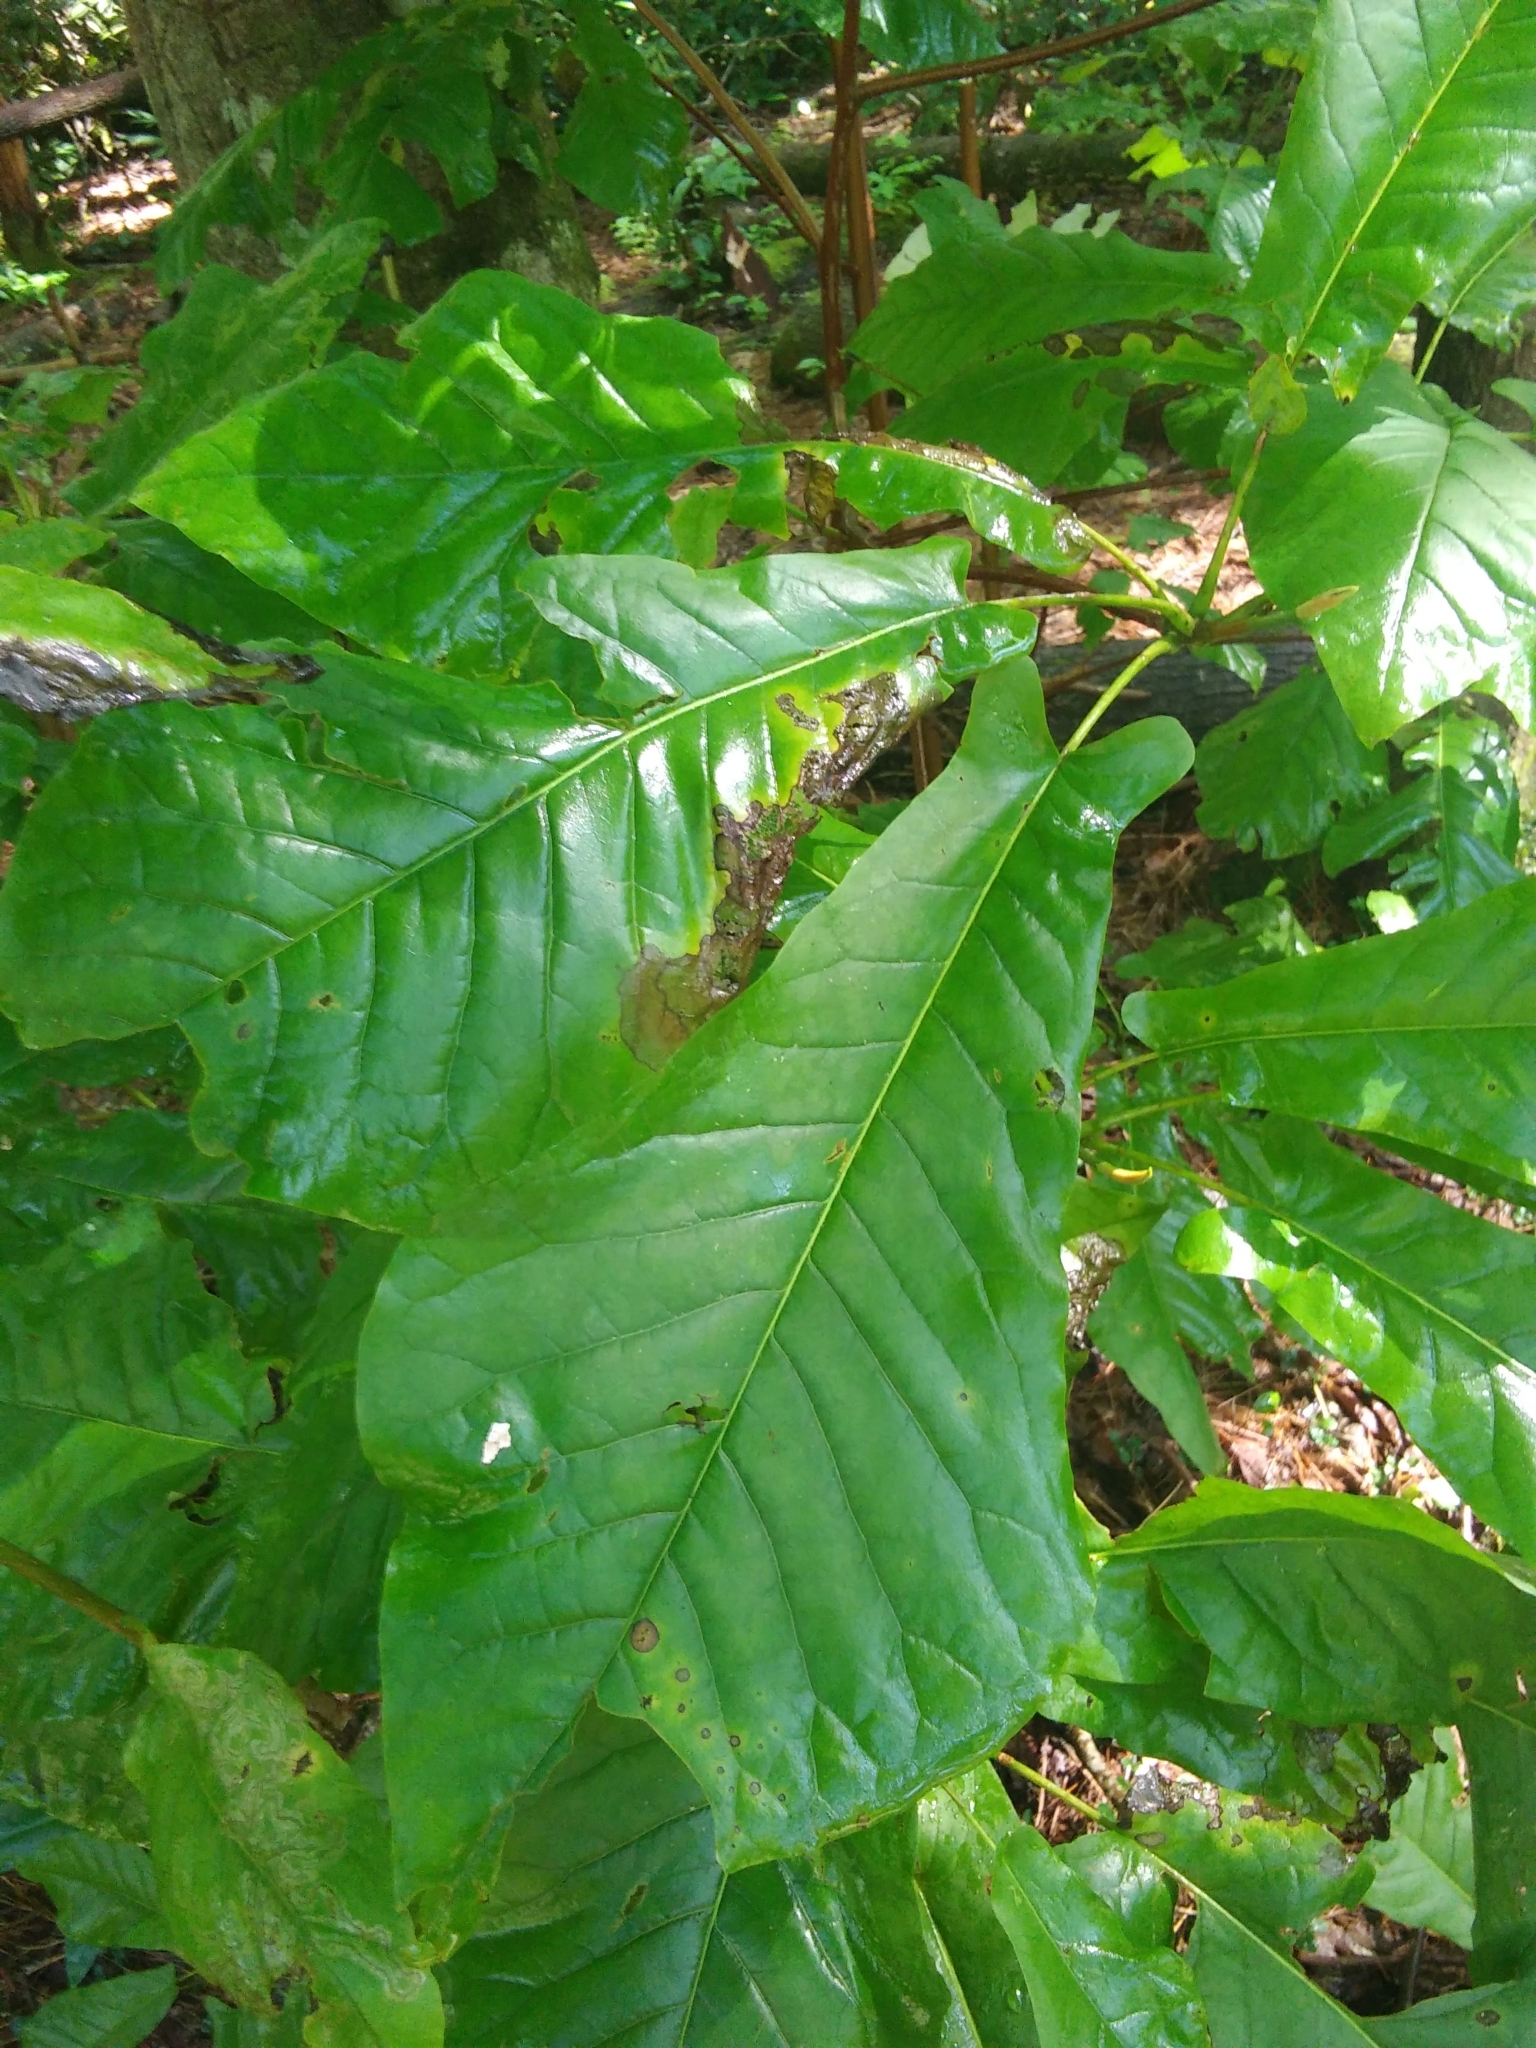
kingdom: Plantae
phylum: Tracheophyta
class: Magnoliopsida
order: Magnoliales
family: Magnoliaceae
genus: Magnolia
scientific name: Magnolia fraseri
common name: Fraser's magnolia
